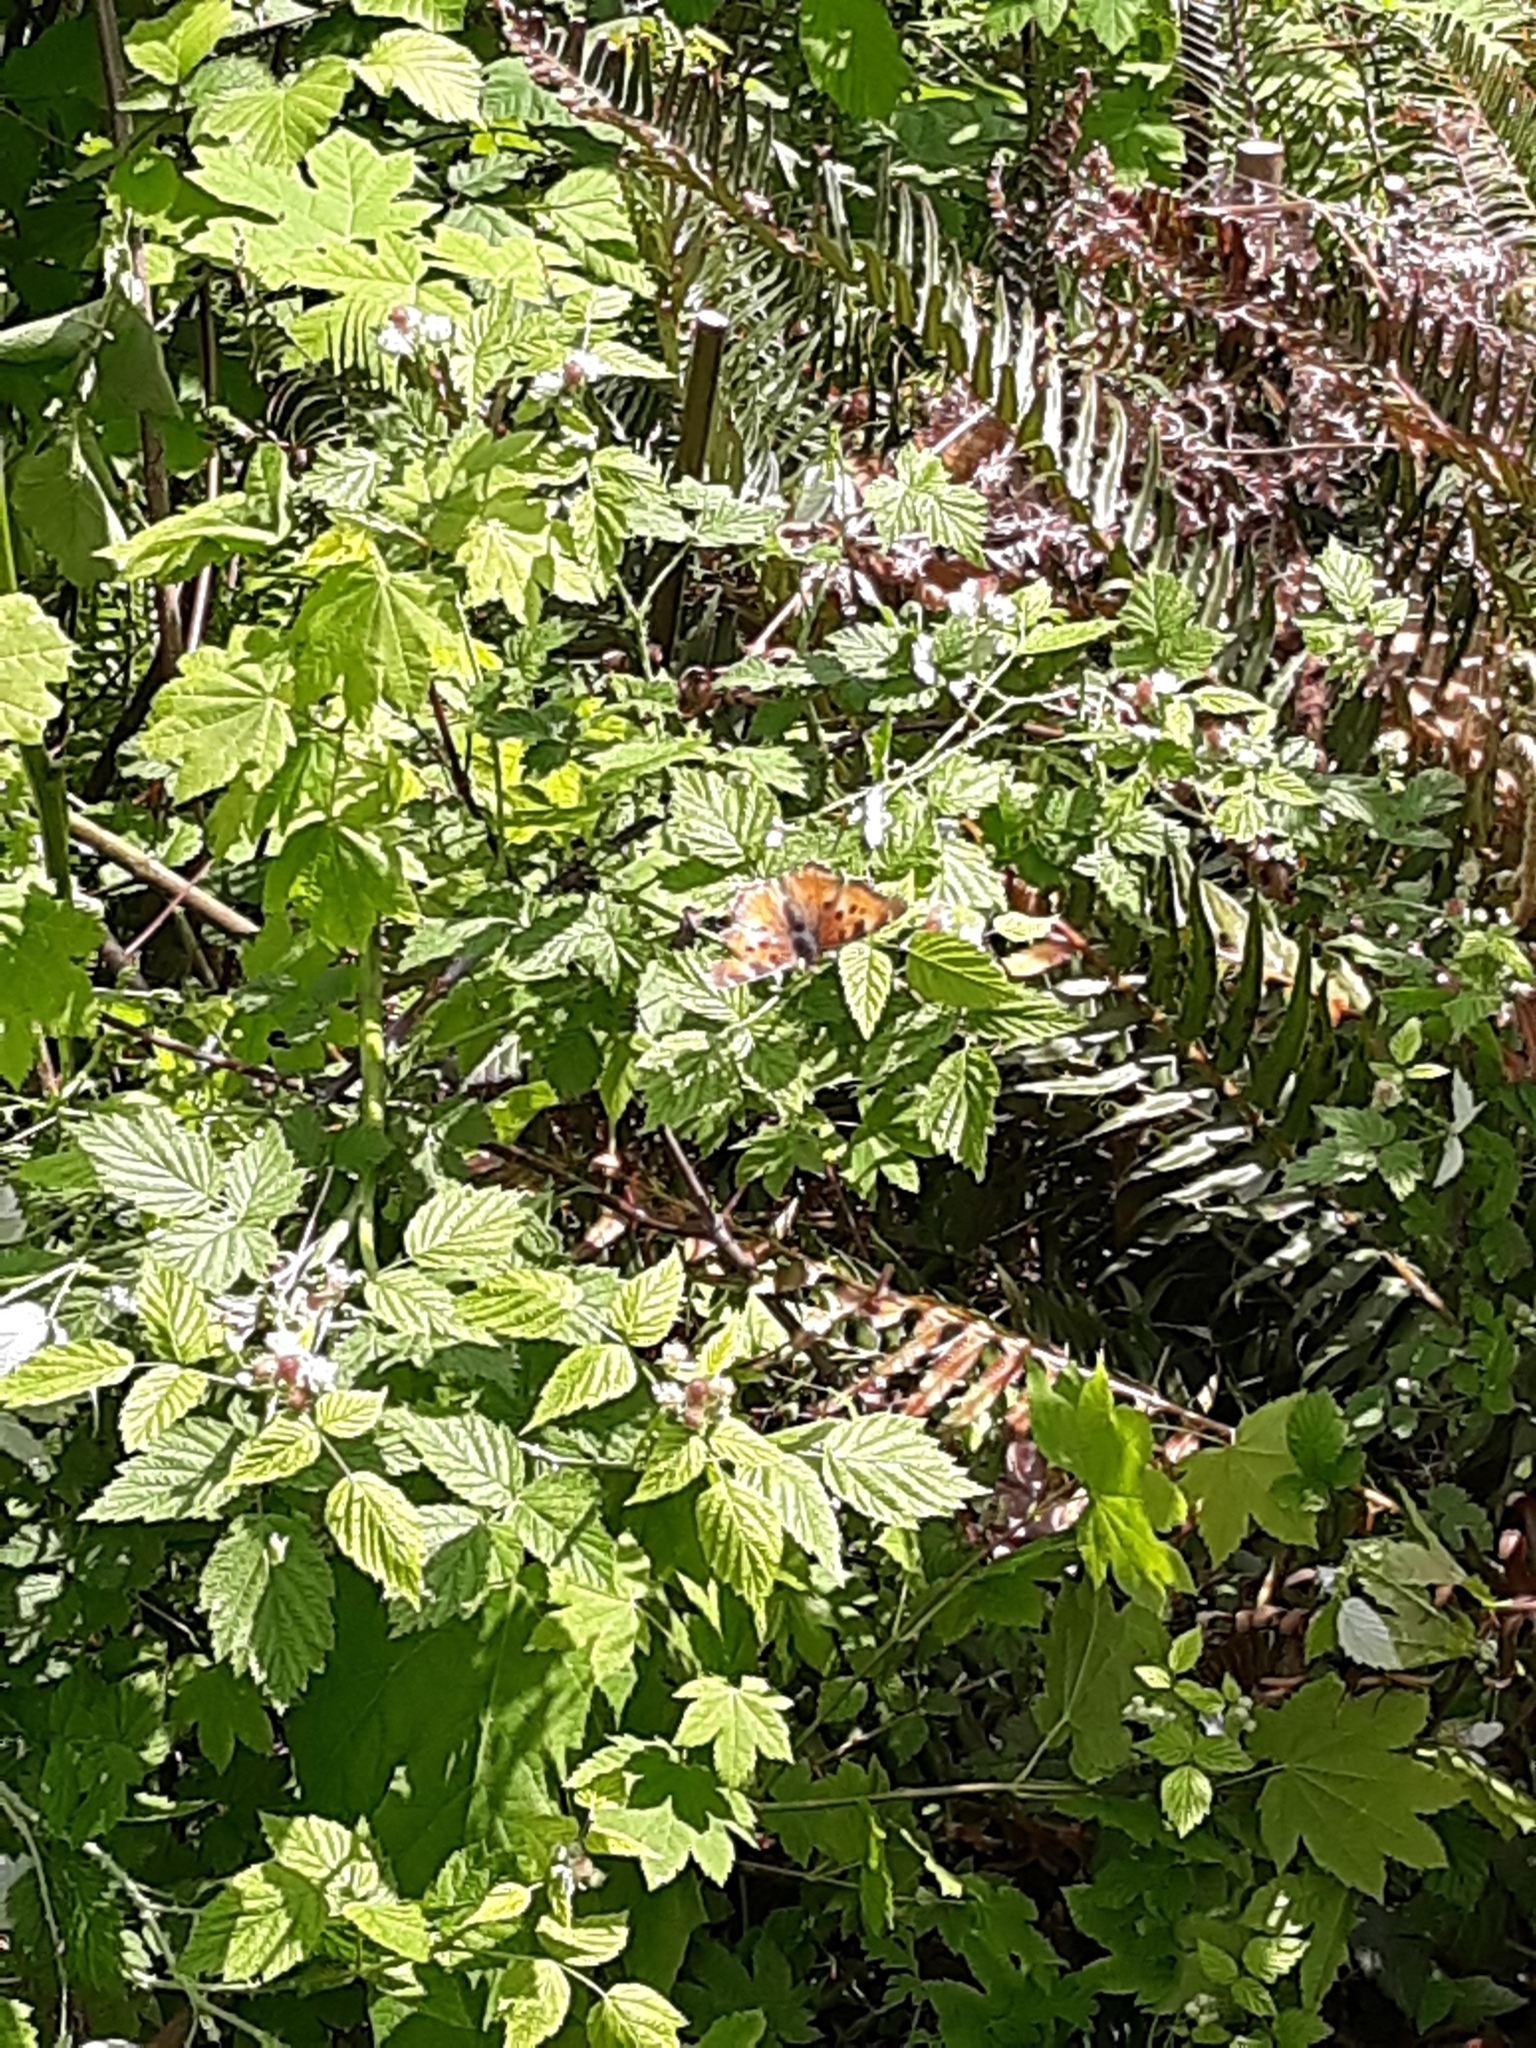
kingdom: Animalia
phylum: Arthropoda
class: Insecta
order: Lepidoptera
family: Nymphalidae
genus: Nymphalis
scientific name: Nymphalis californica
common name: California tortoiseshell
